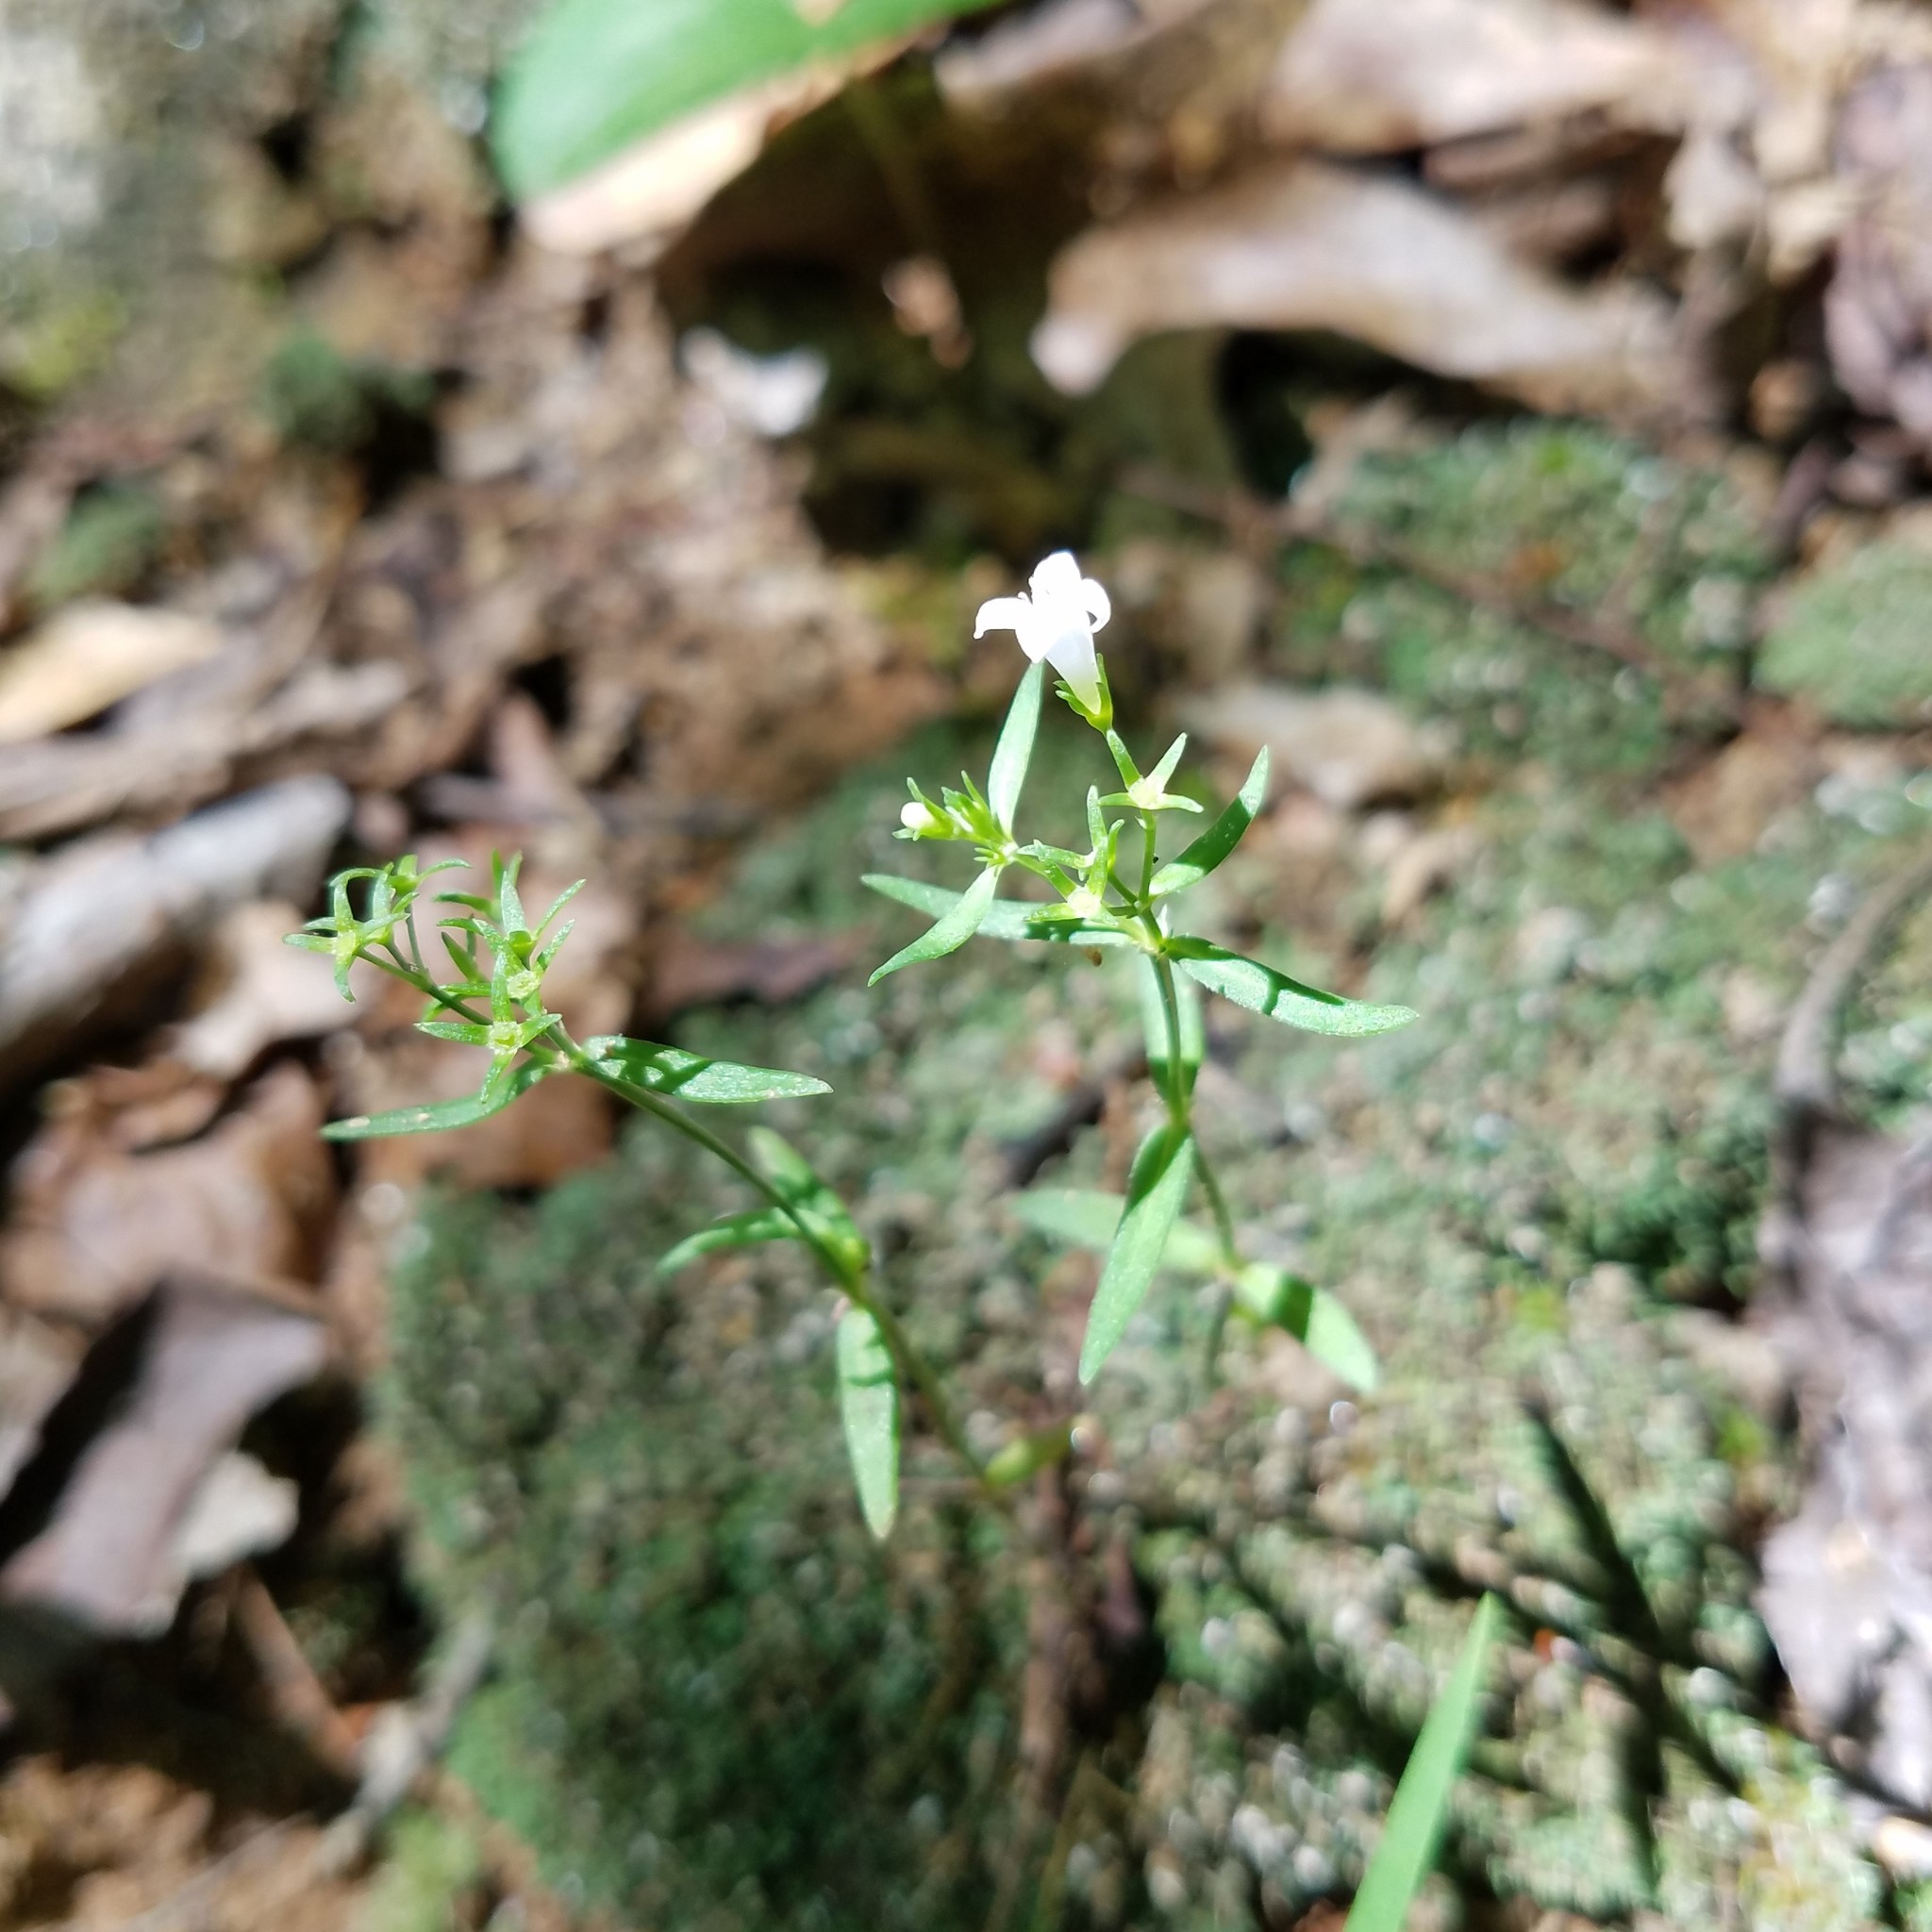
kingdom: Plantae
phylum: Tracheophyta
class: Magnoliopsida
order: Gentianales
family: Rubiaceae
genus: Houstonia
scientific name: Houstonia longifolia
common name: Long-leaved bluets
